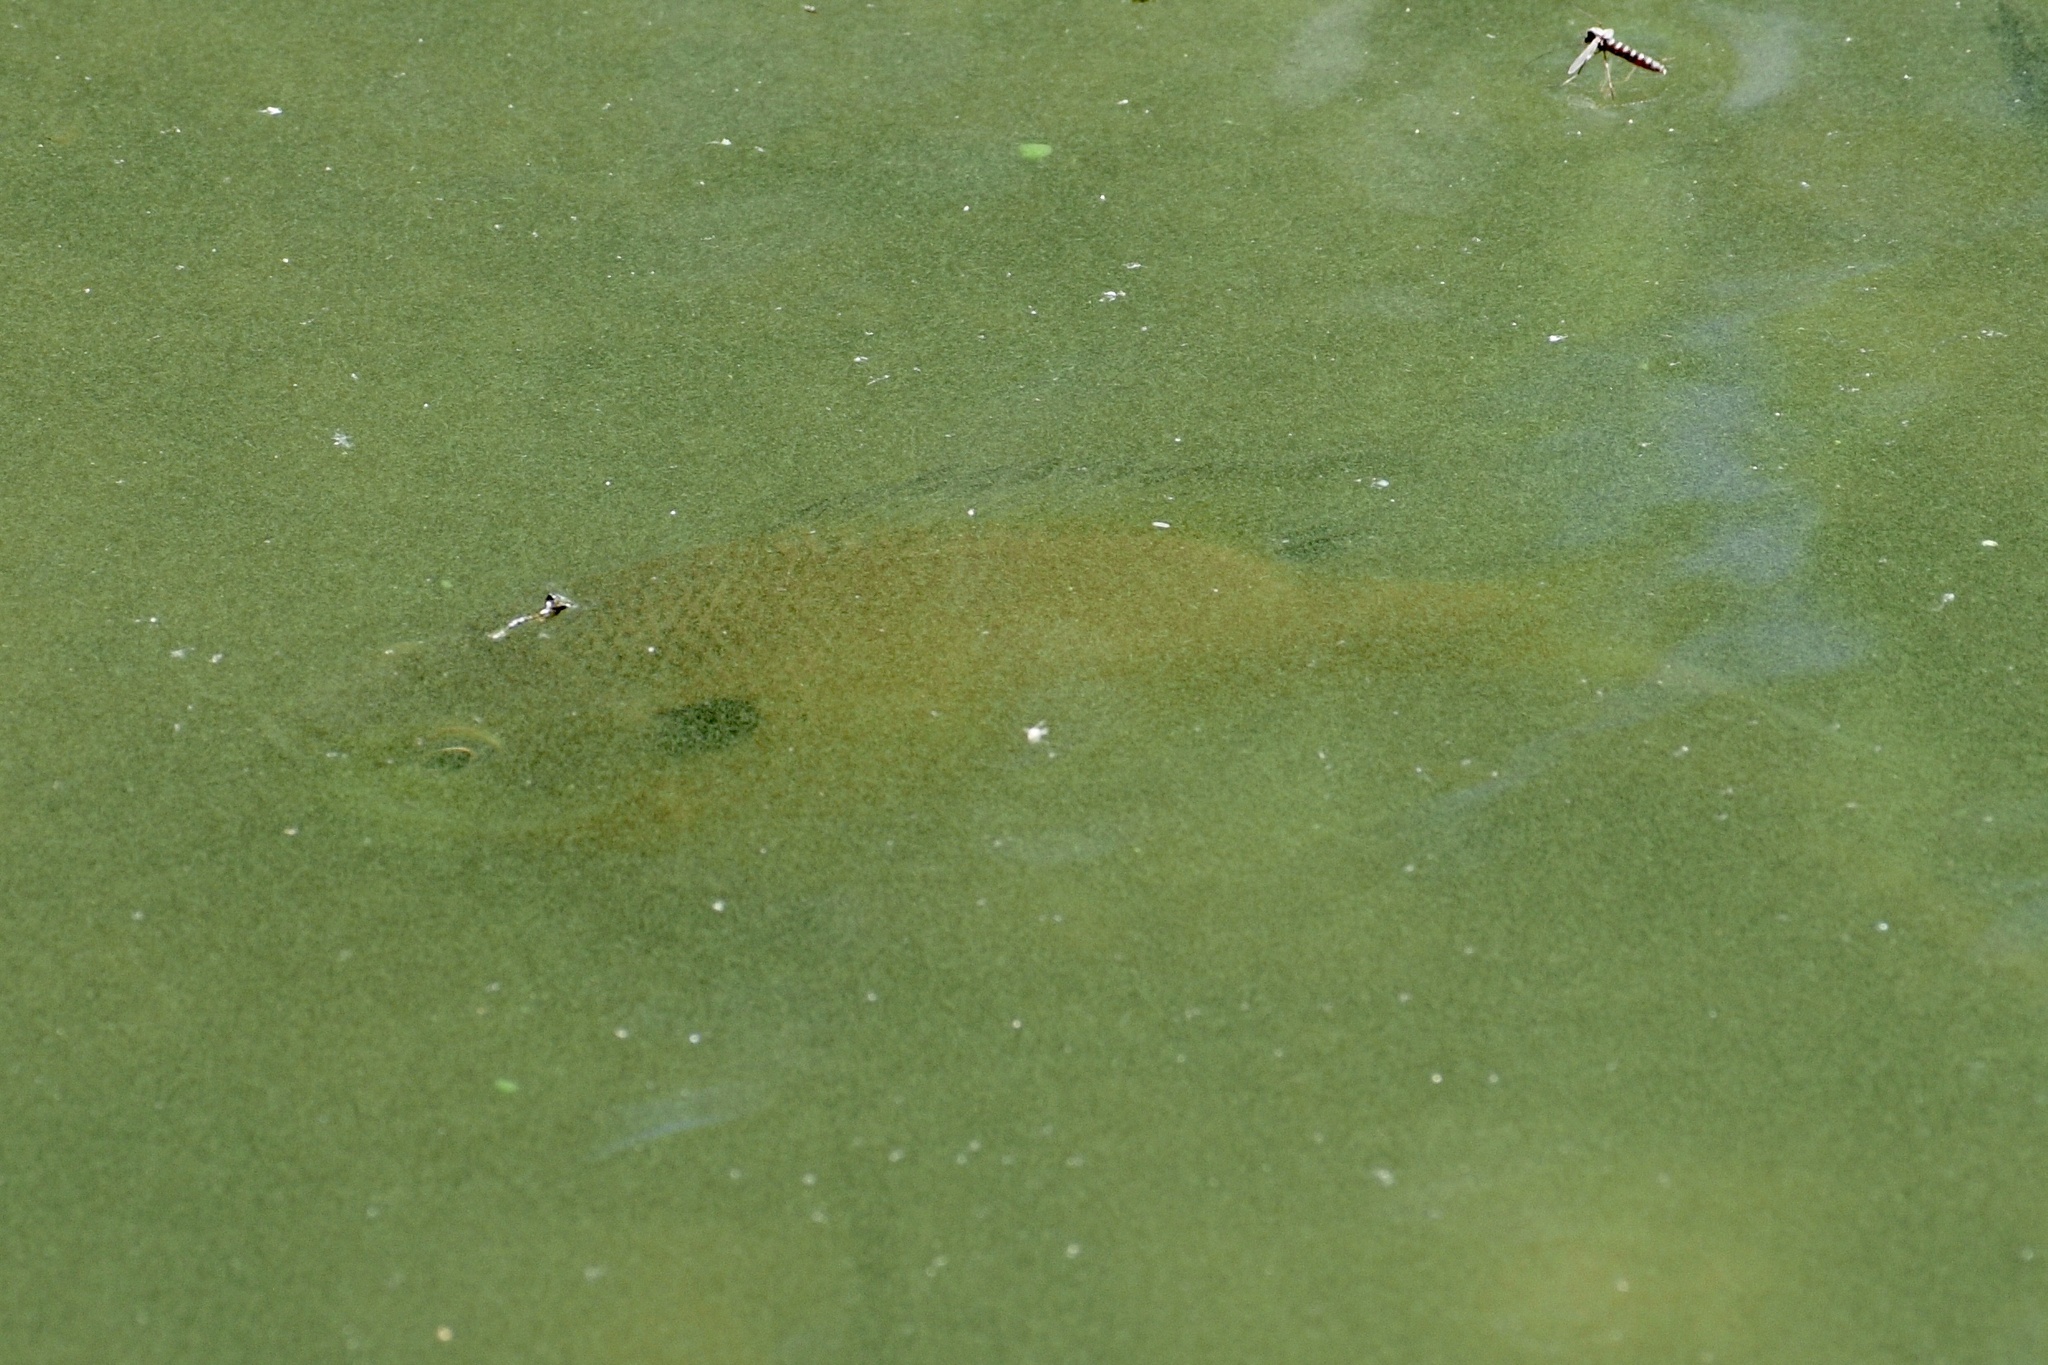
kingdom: Animalia
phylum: Chordata
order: Perciformes
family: Centrarchidae
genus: Lepomis
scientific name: Lepomis macrochirus
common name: Bluegill
